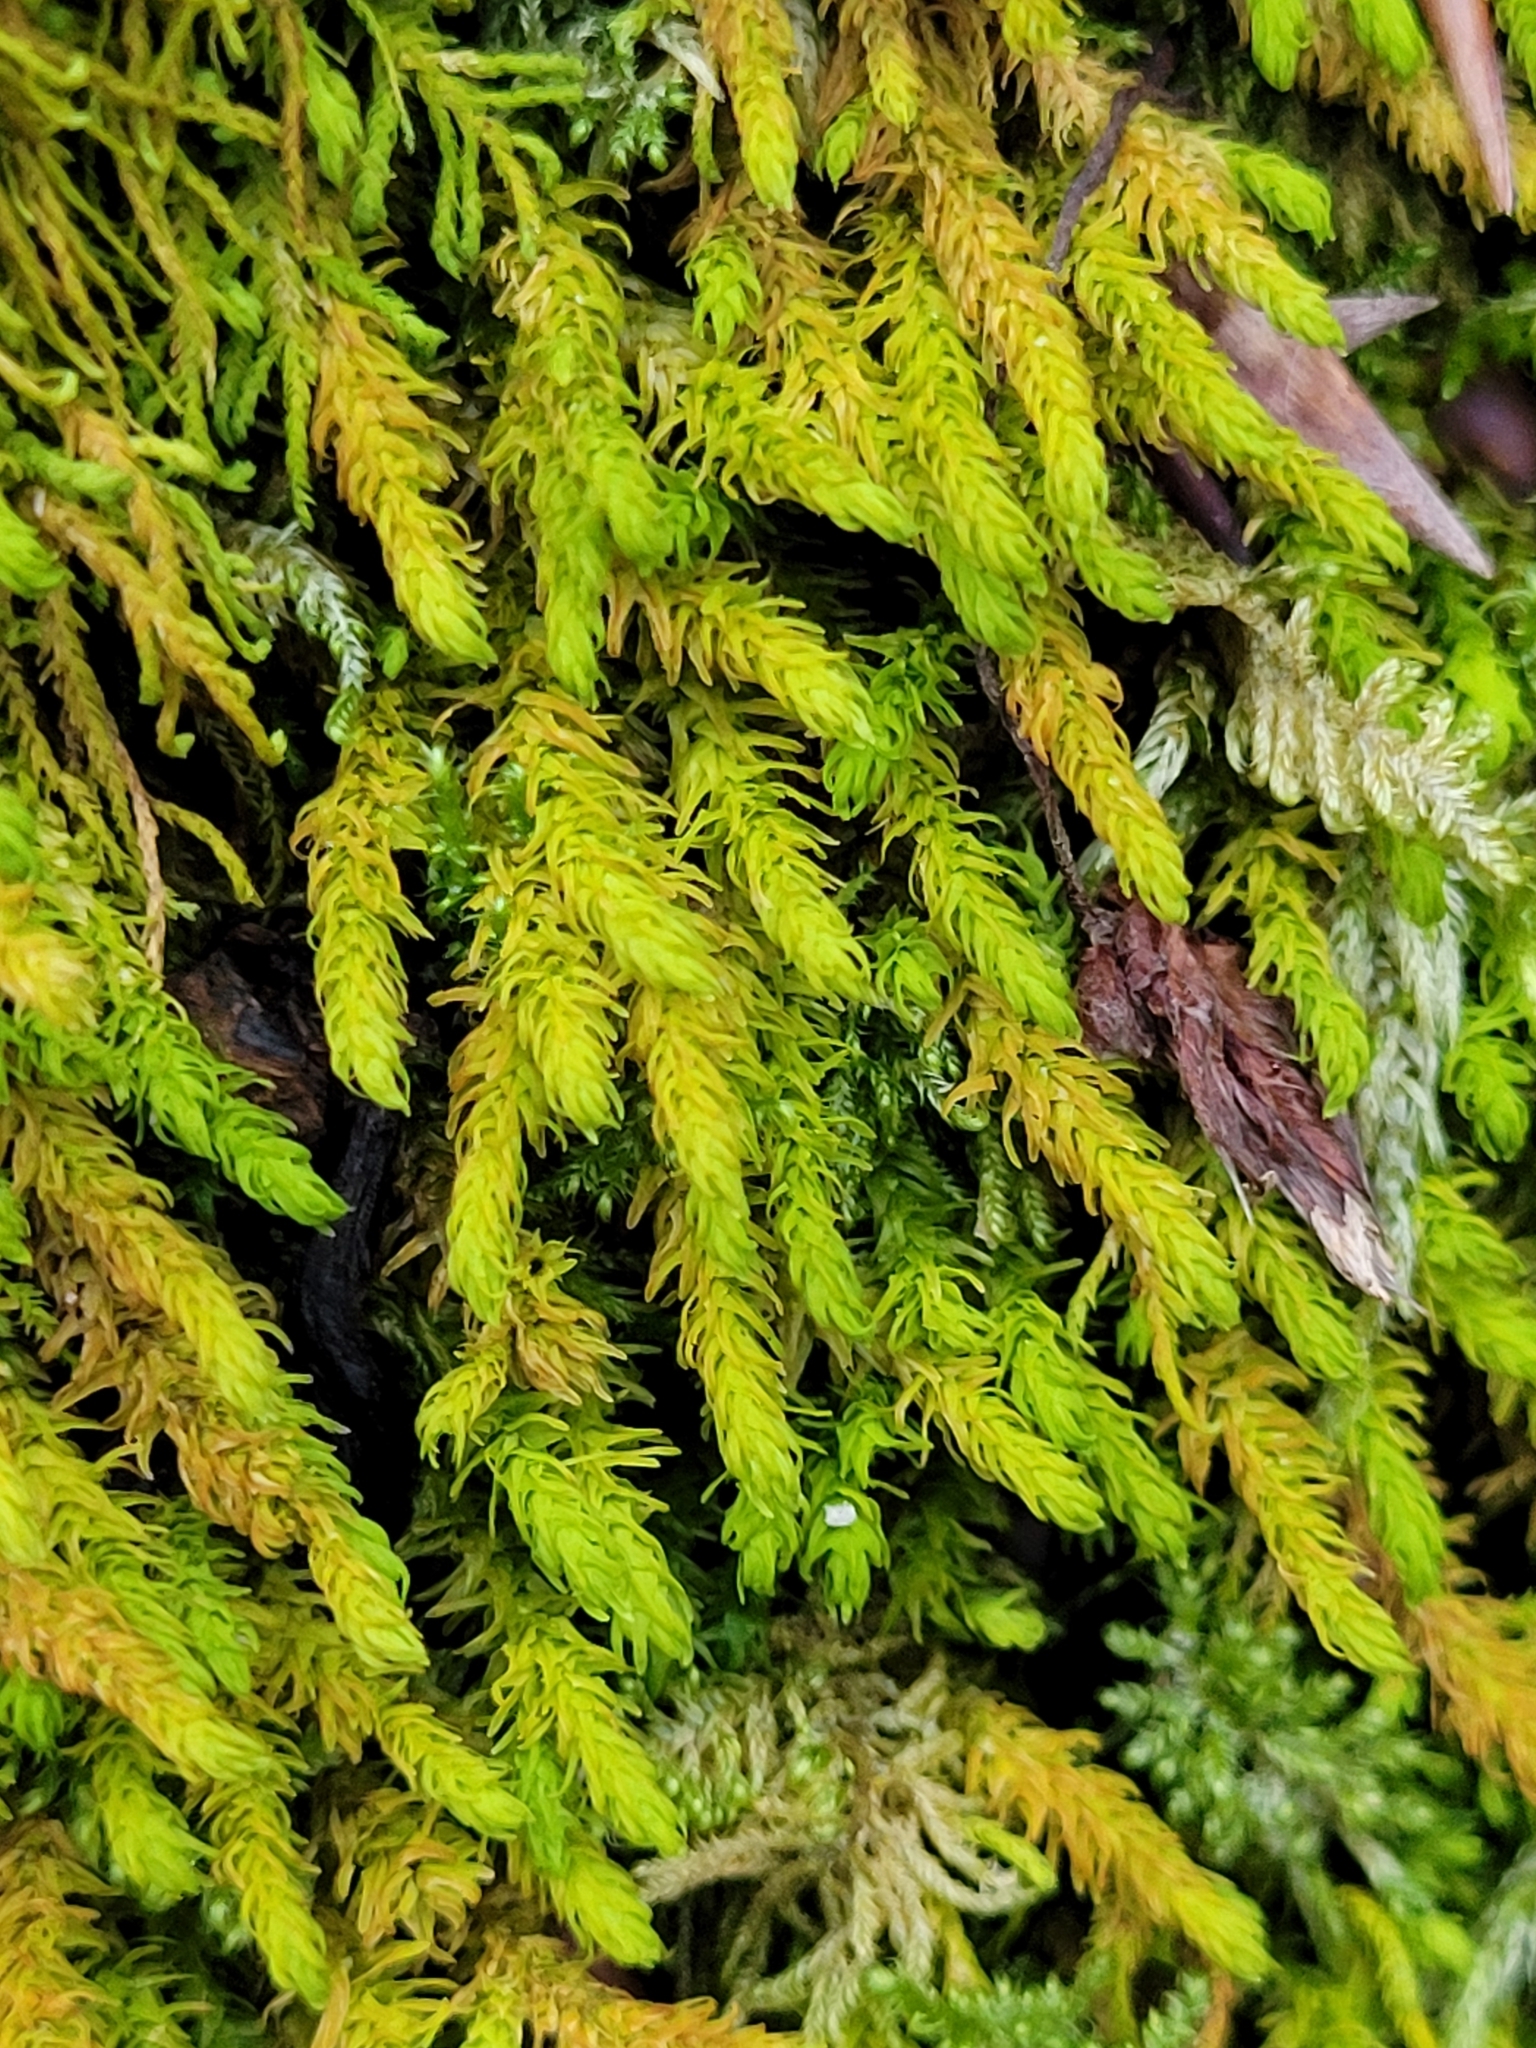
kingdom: Plantae
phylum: Bryophyta
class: Bryopsida
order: Hypnales
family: Anomodontaceae
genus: Anomodon
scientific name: Anomodon viticulosus
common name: Tall anomodon
